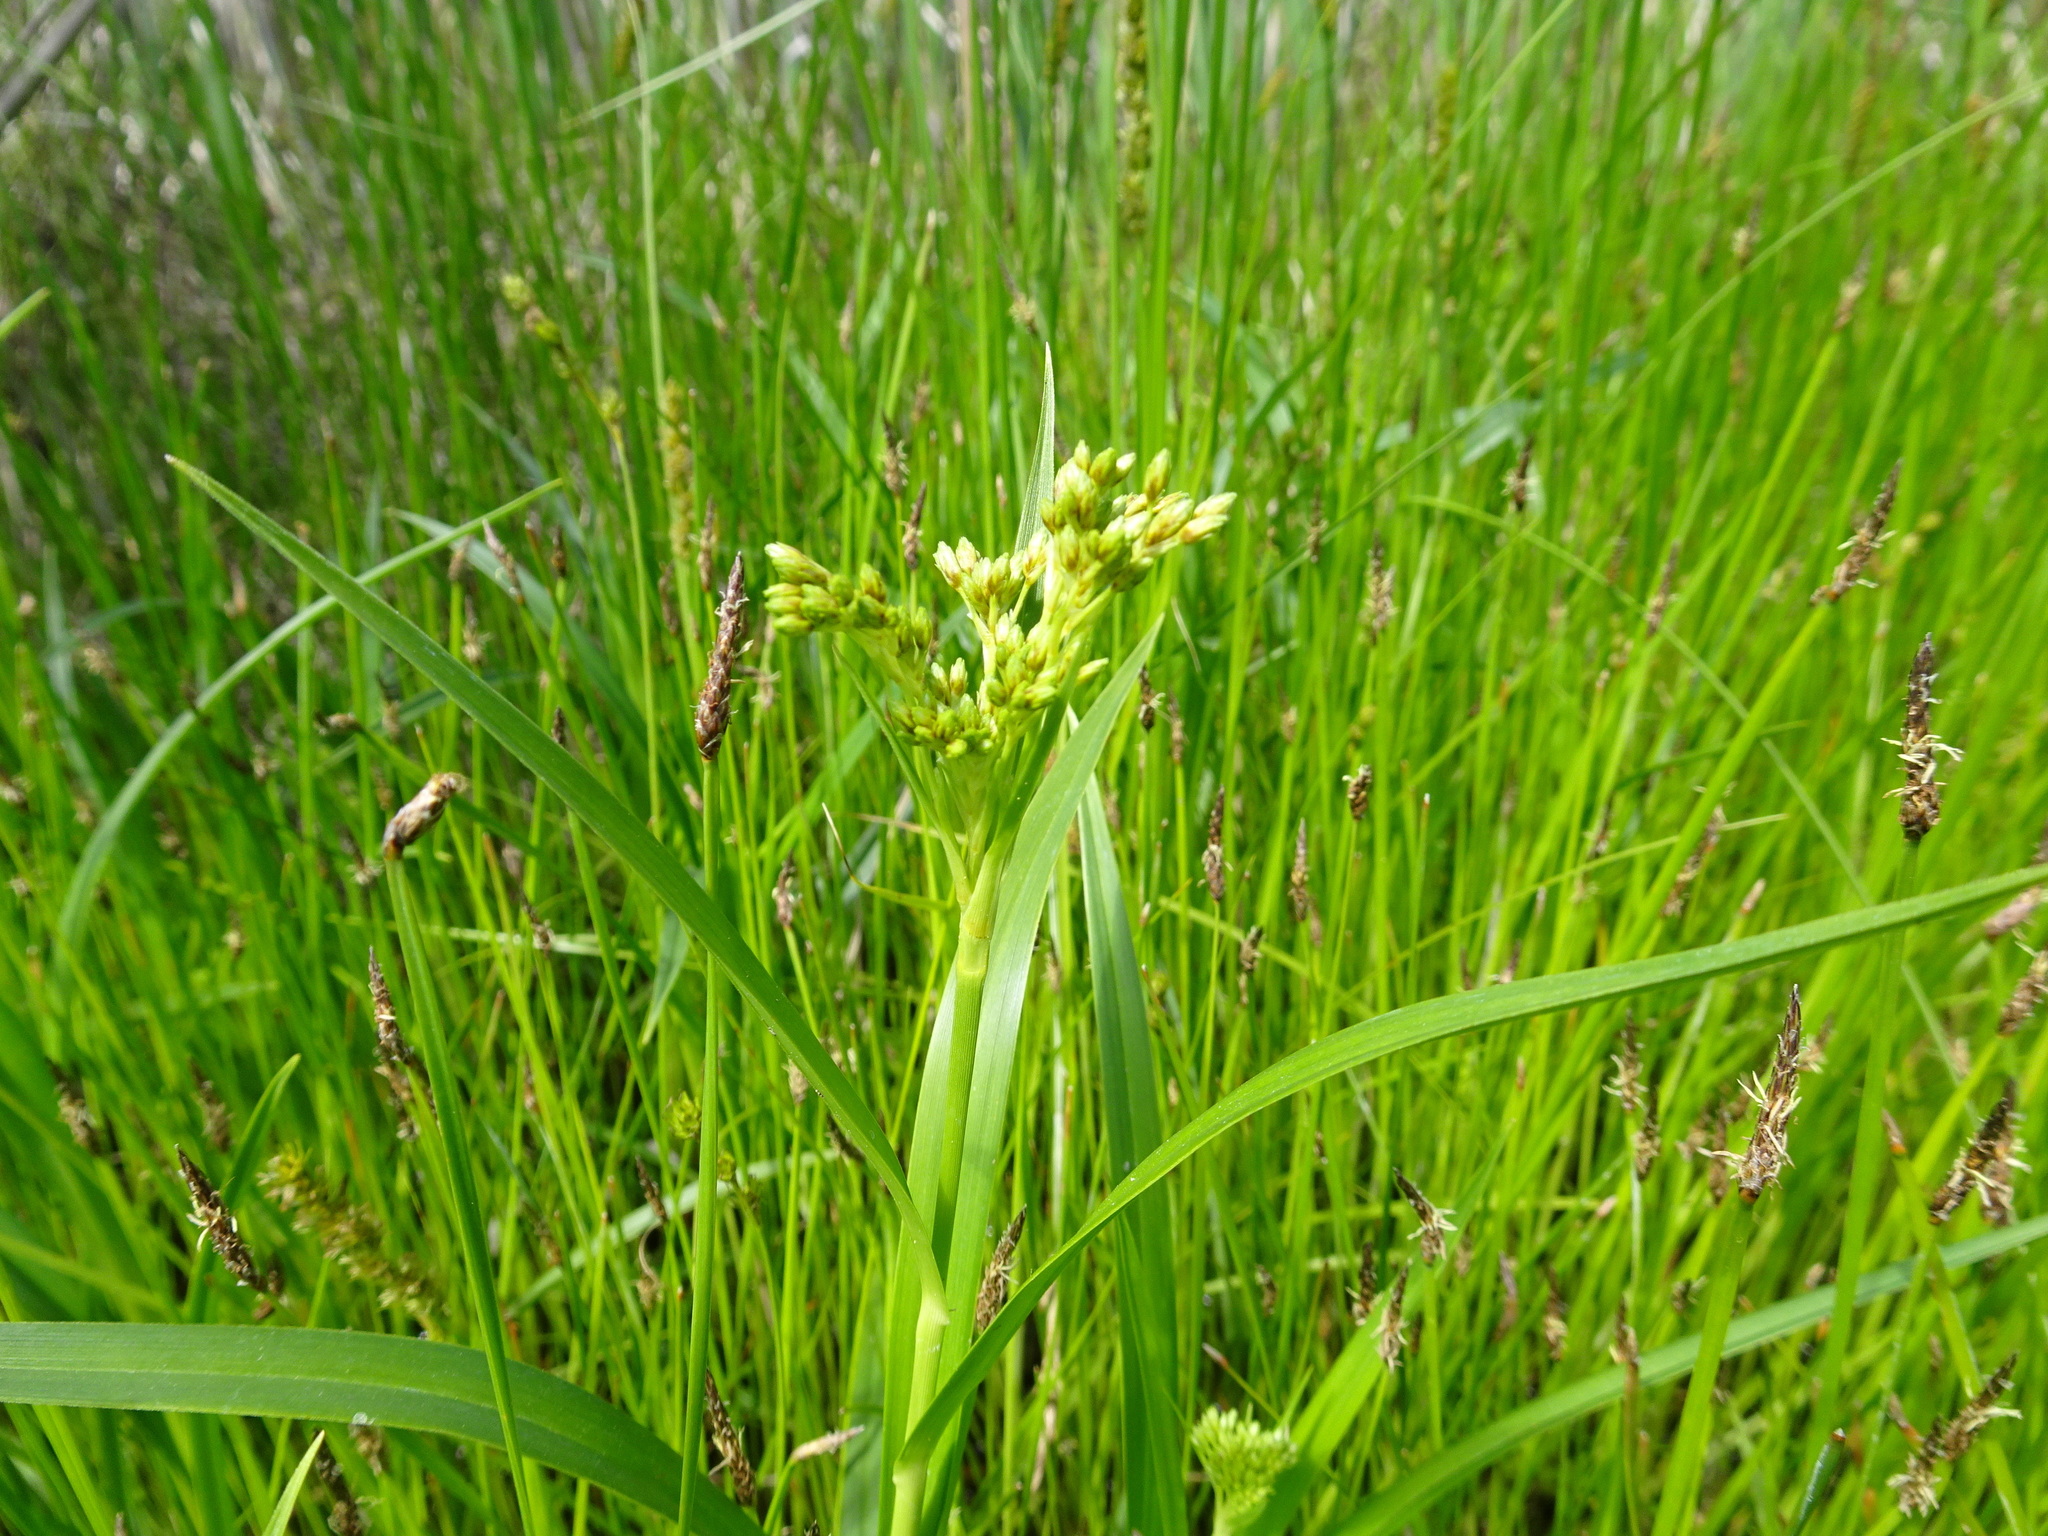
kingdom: Plantae
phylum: Tracheophyta
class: Liliopsida
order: Poales
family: Cyperaceae
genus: Scirpus
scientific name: Scirpus pendulus
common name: Nodding bulrush
